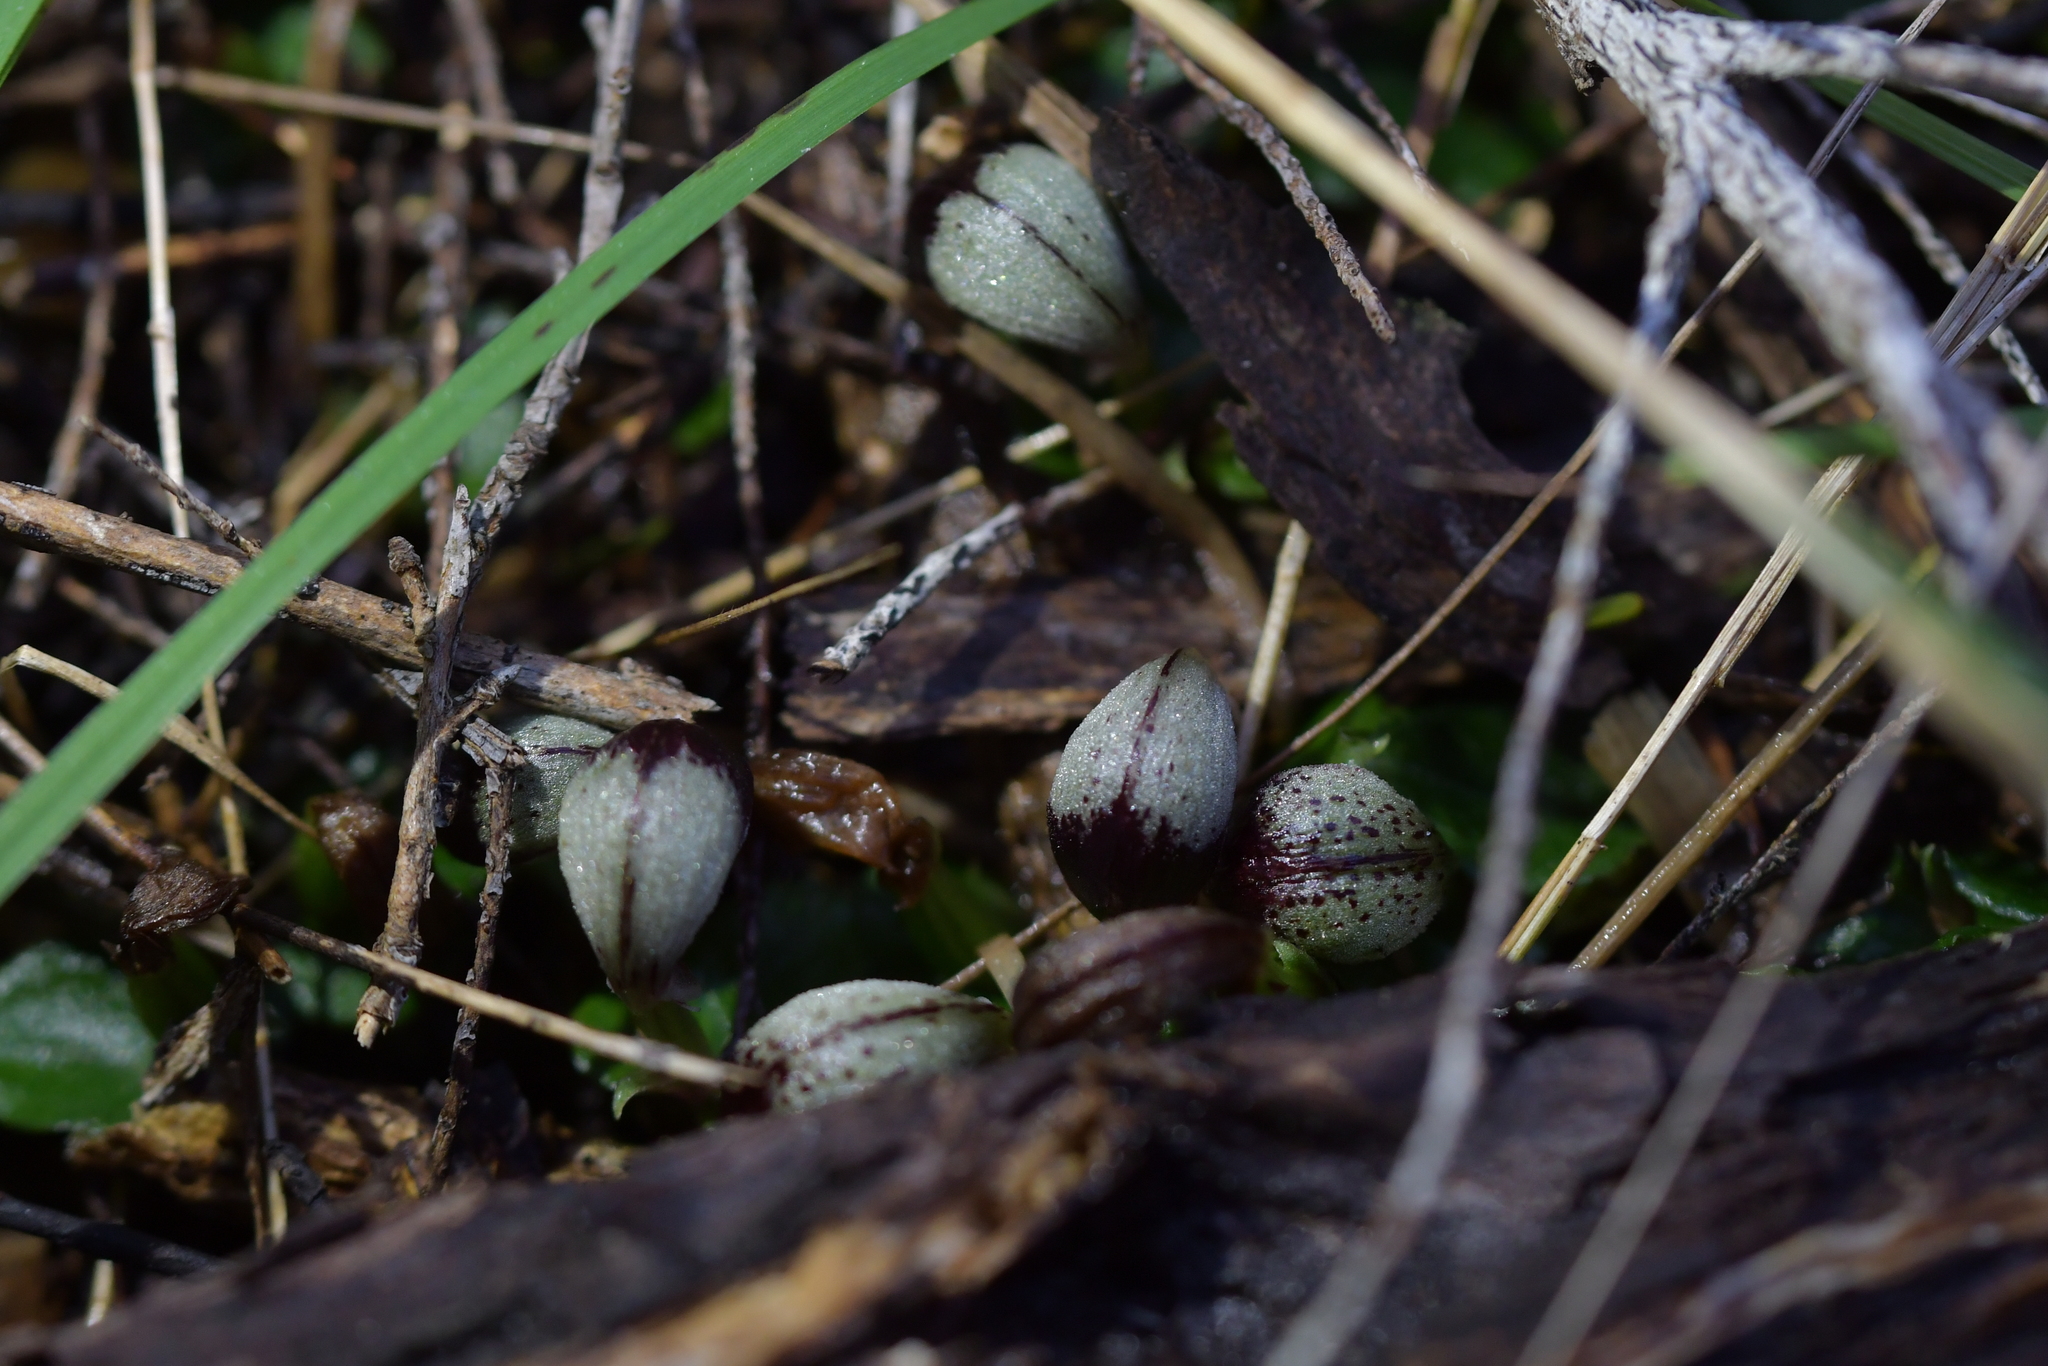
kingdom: Plantae
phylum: Tracheophyta
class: Liliopsida
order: Asparagales
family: Orchidaceae
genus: Corybas
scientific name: Corybas cheesemanii
